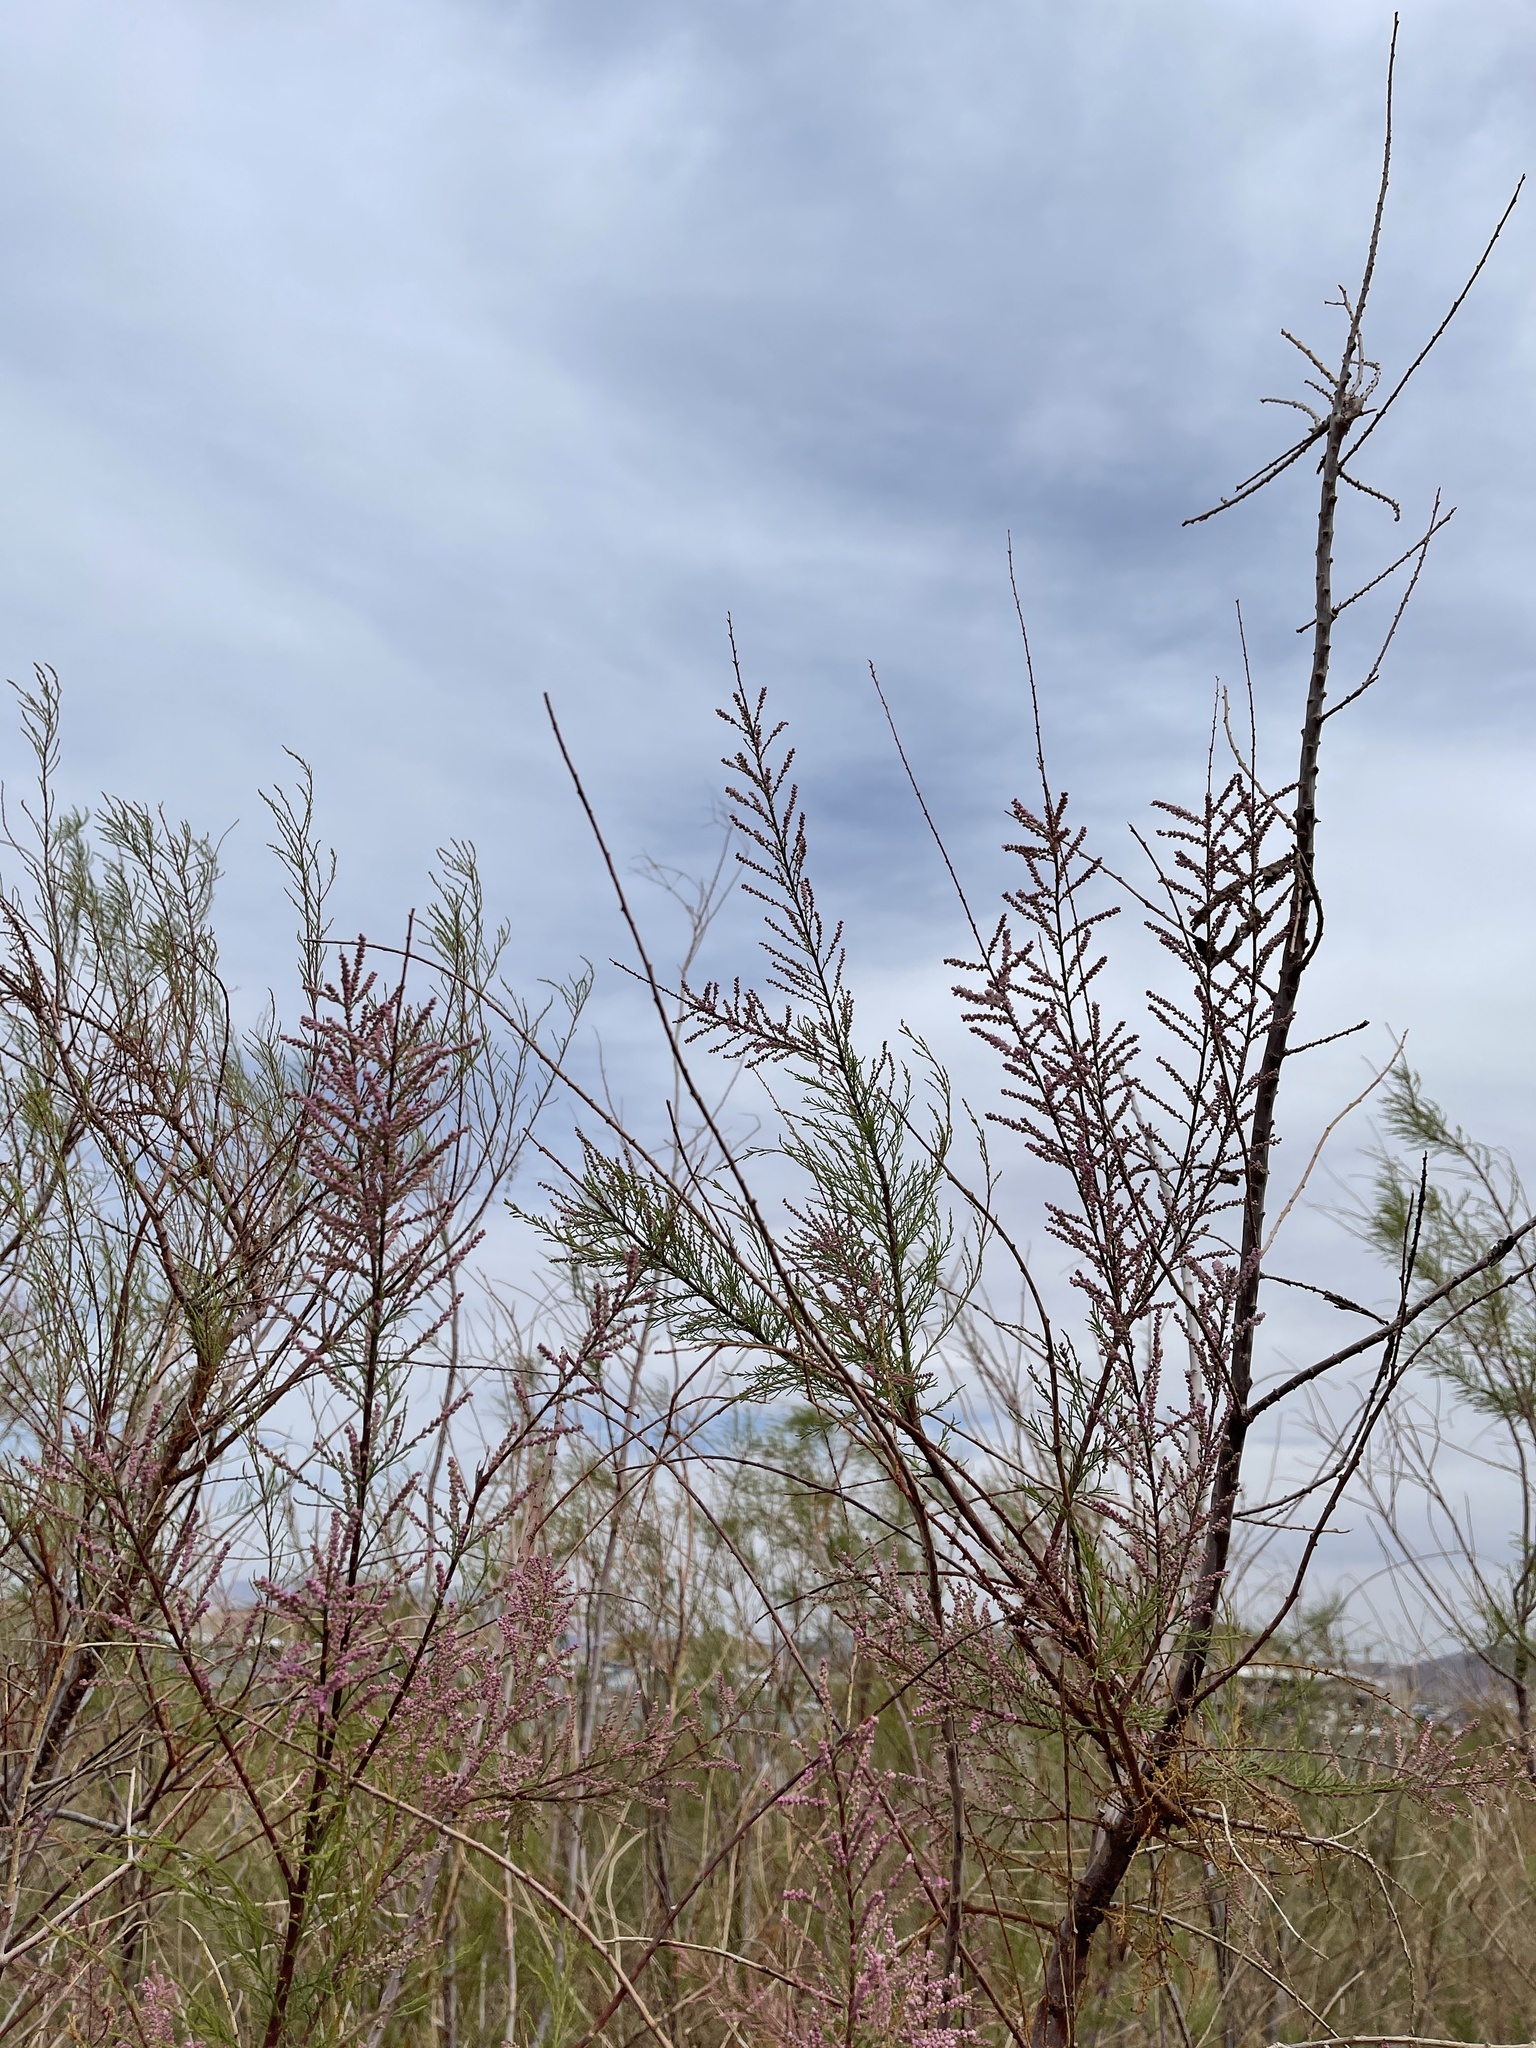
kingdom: Plantae
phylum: Tracheophyta
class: Magnoliopsida
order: Caryophyllales
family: Tamaricaceae
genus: Tamarix
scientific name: Tamarix ramosissima
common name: Pink tamarisk
